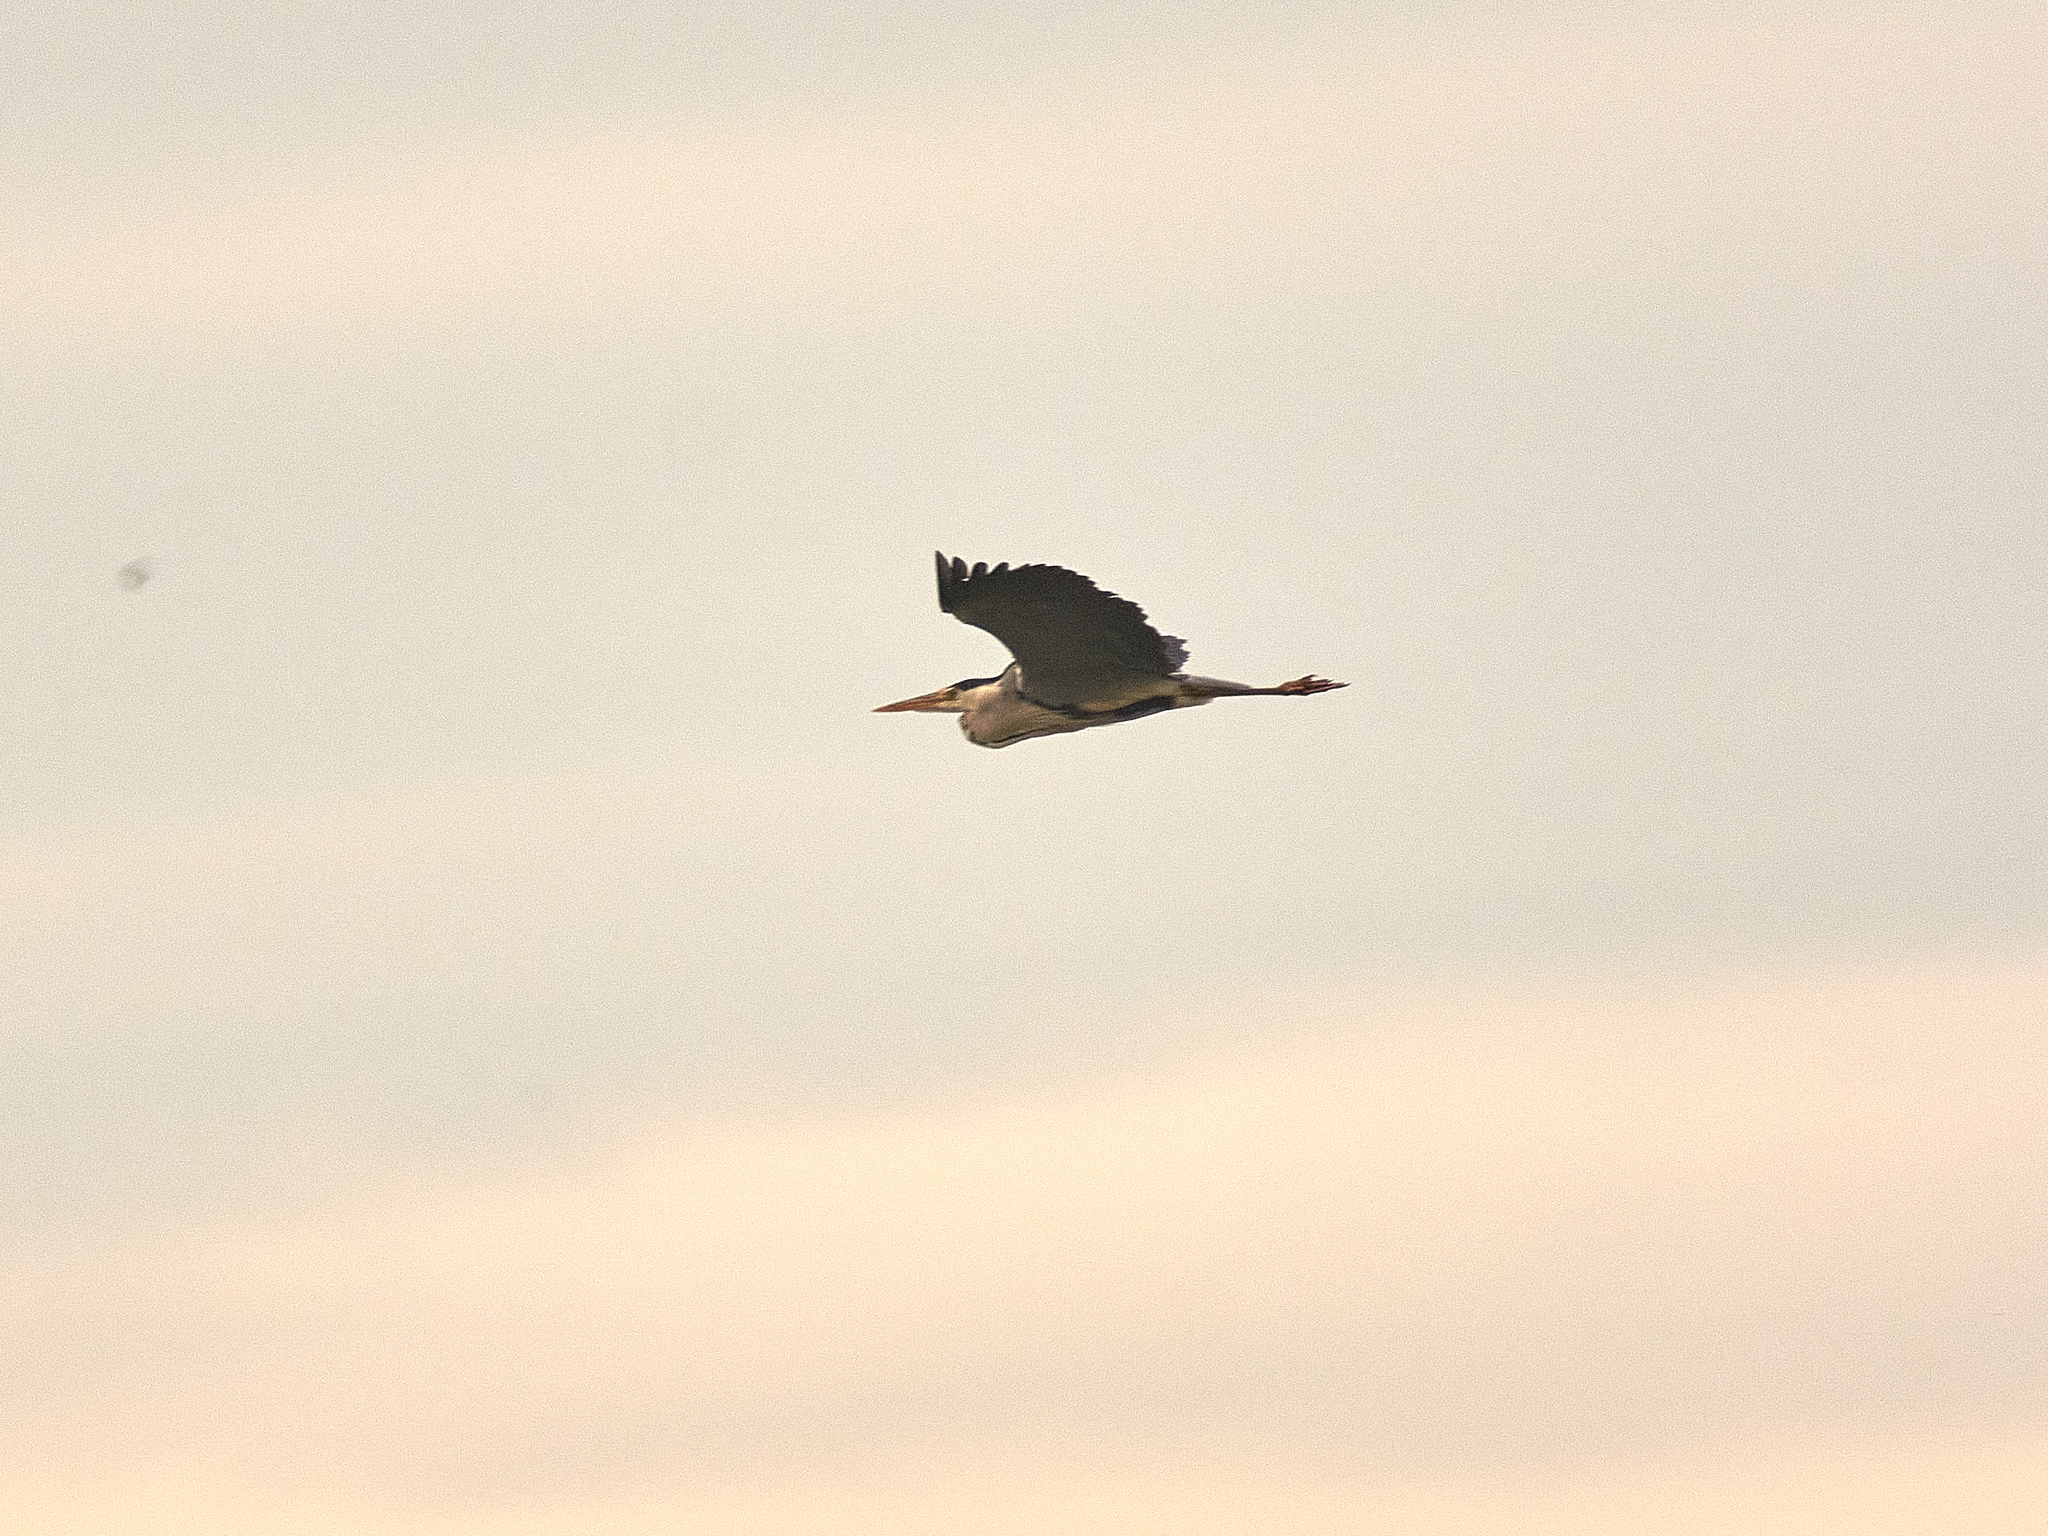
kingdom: Animalia
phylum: Chordata
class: Aves
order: Pelecaniformes
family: Ardeidae
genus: Ardea
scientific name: Ardea cinerea
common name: Grey heron
